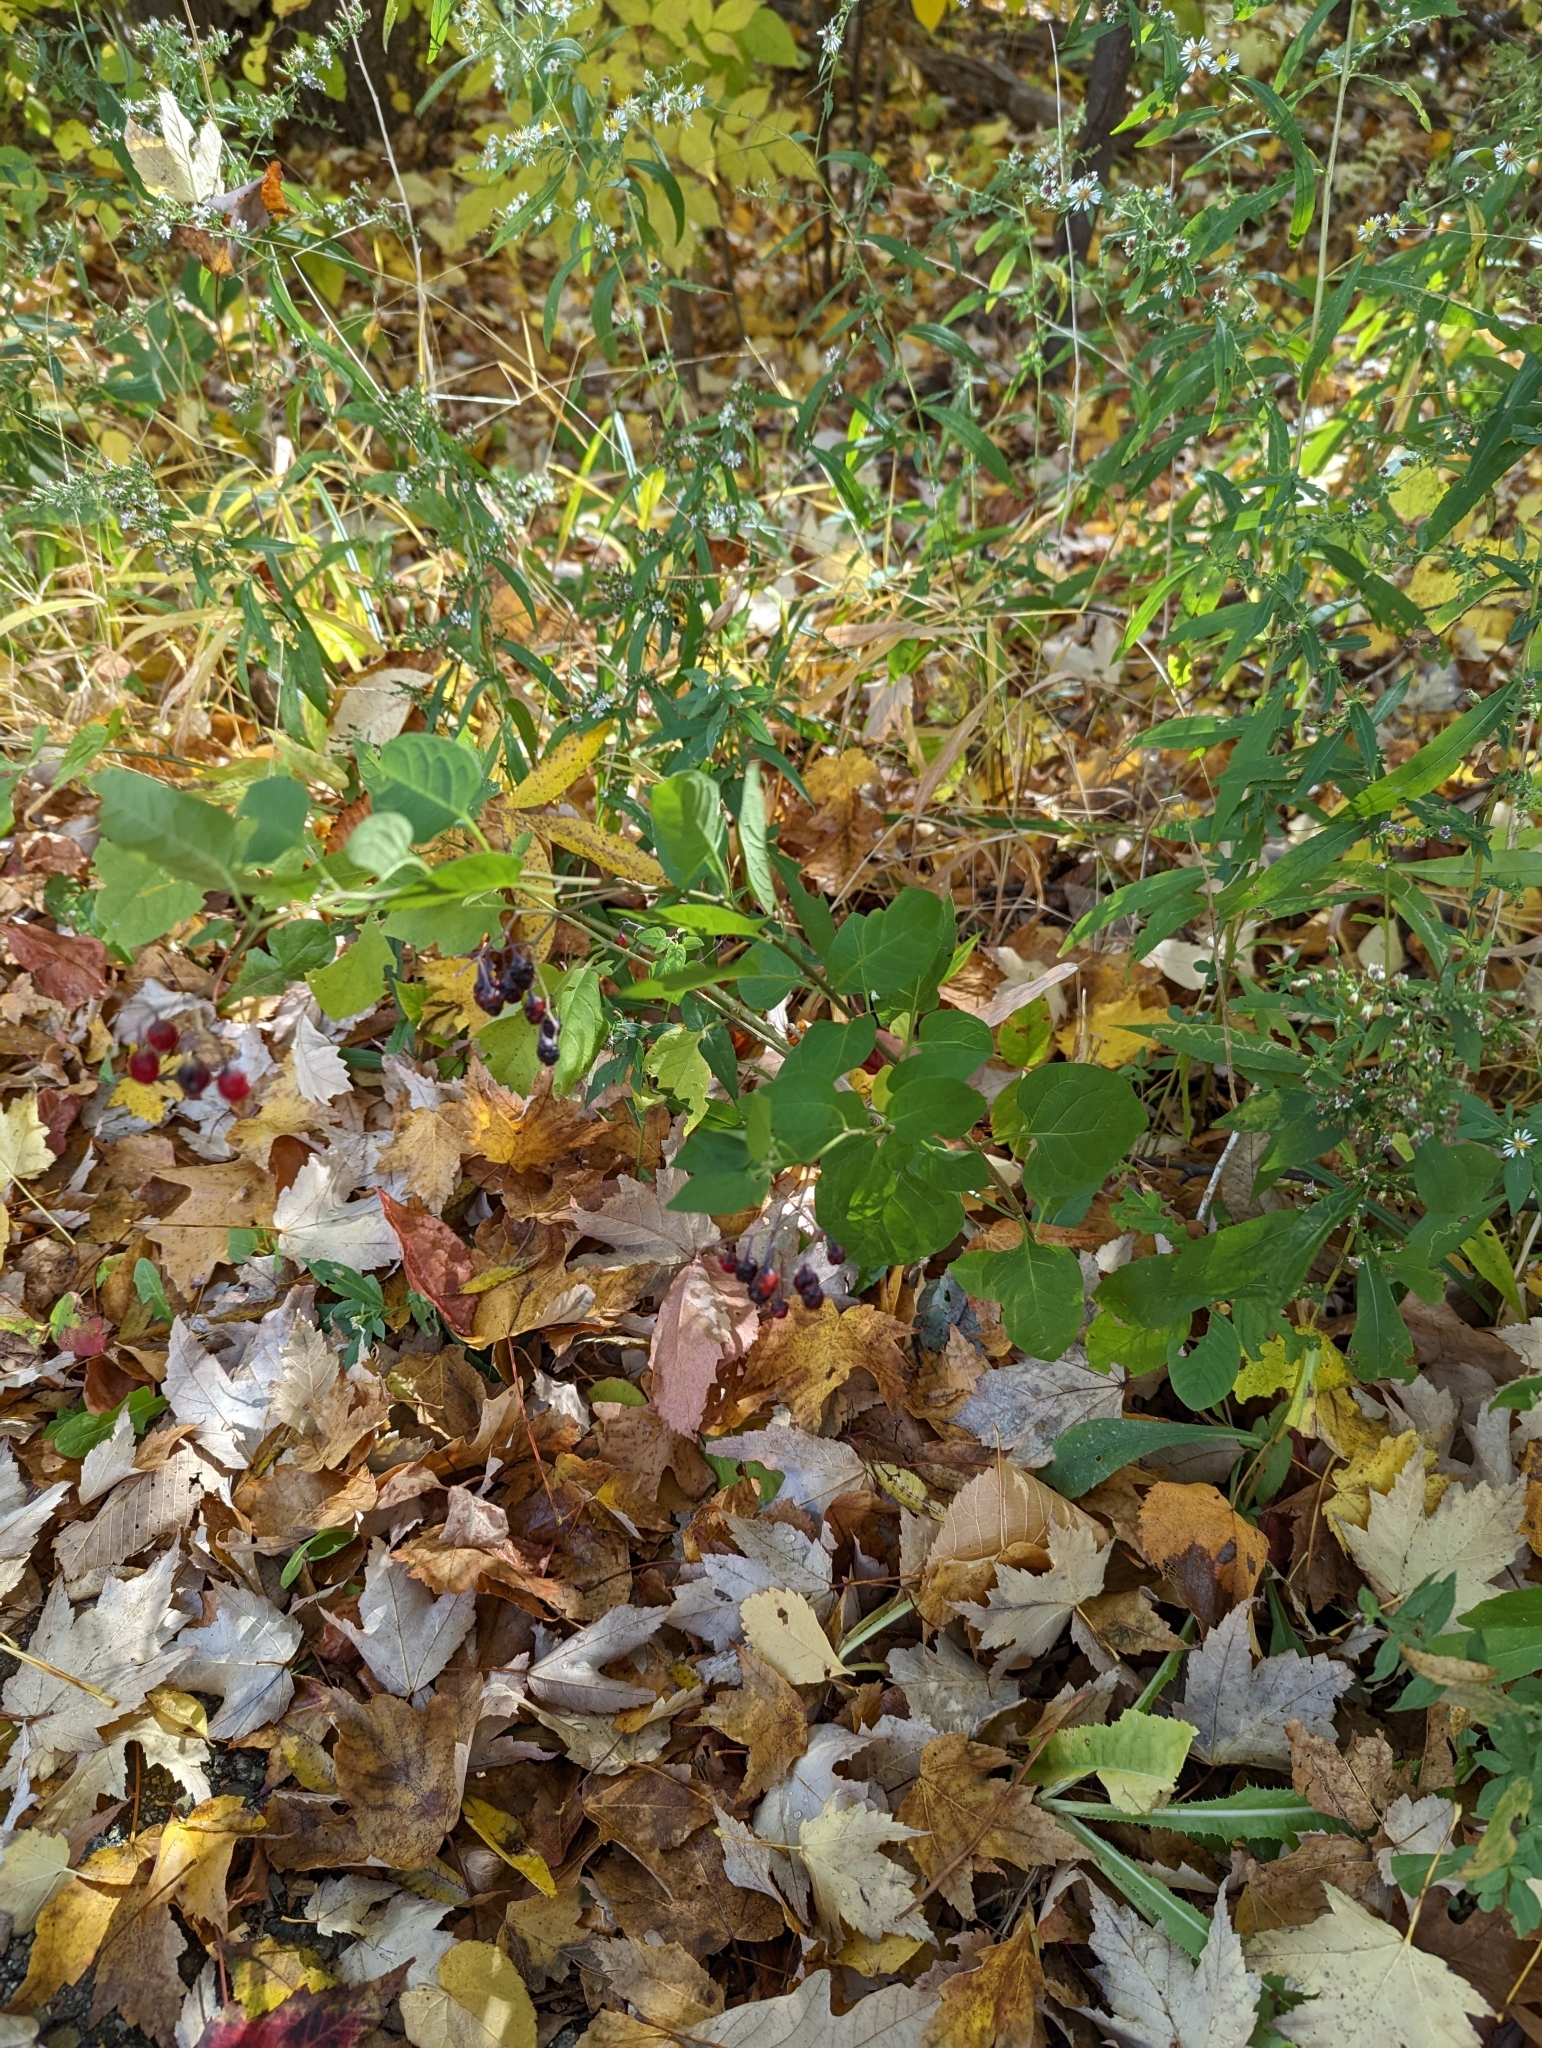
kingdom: Plantae
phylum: Tracheophyta
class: Magnoliopsida
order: Solanales
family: Solanaceae
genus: Solanum
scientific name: Solanum dulcamara
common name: Climbing nightshade
